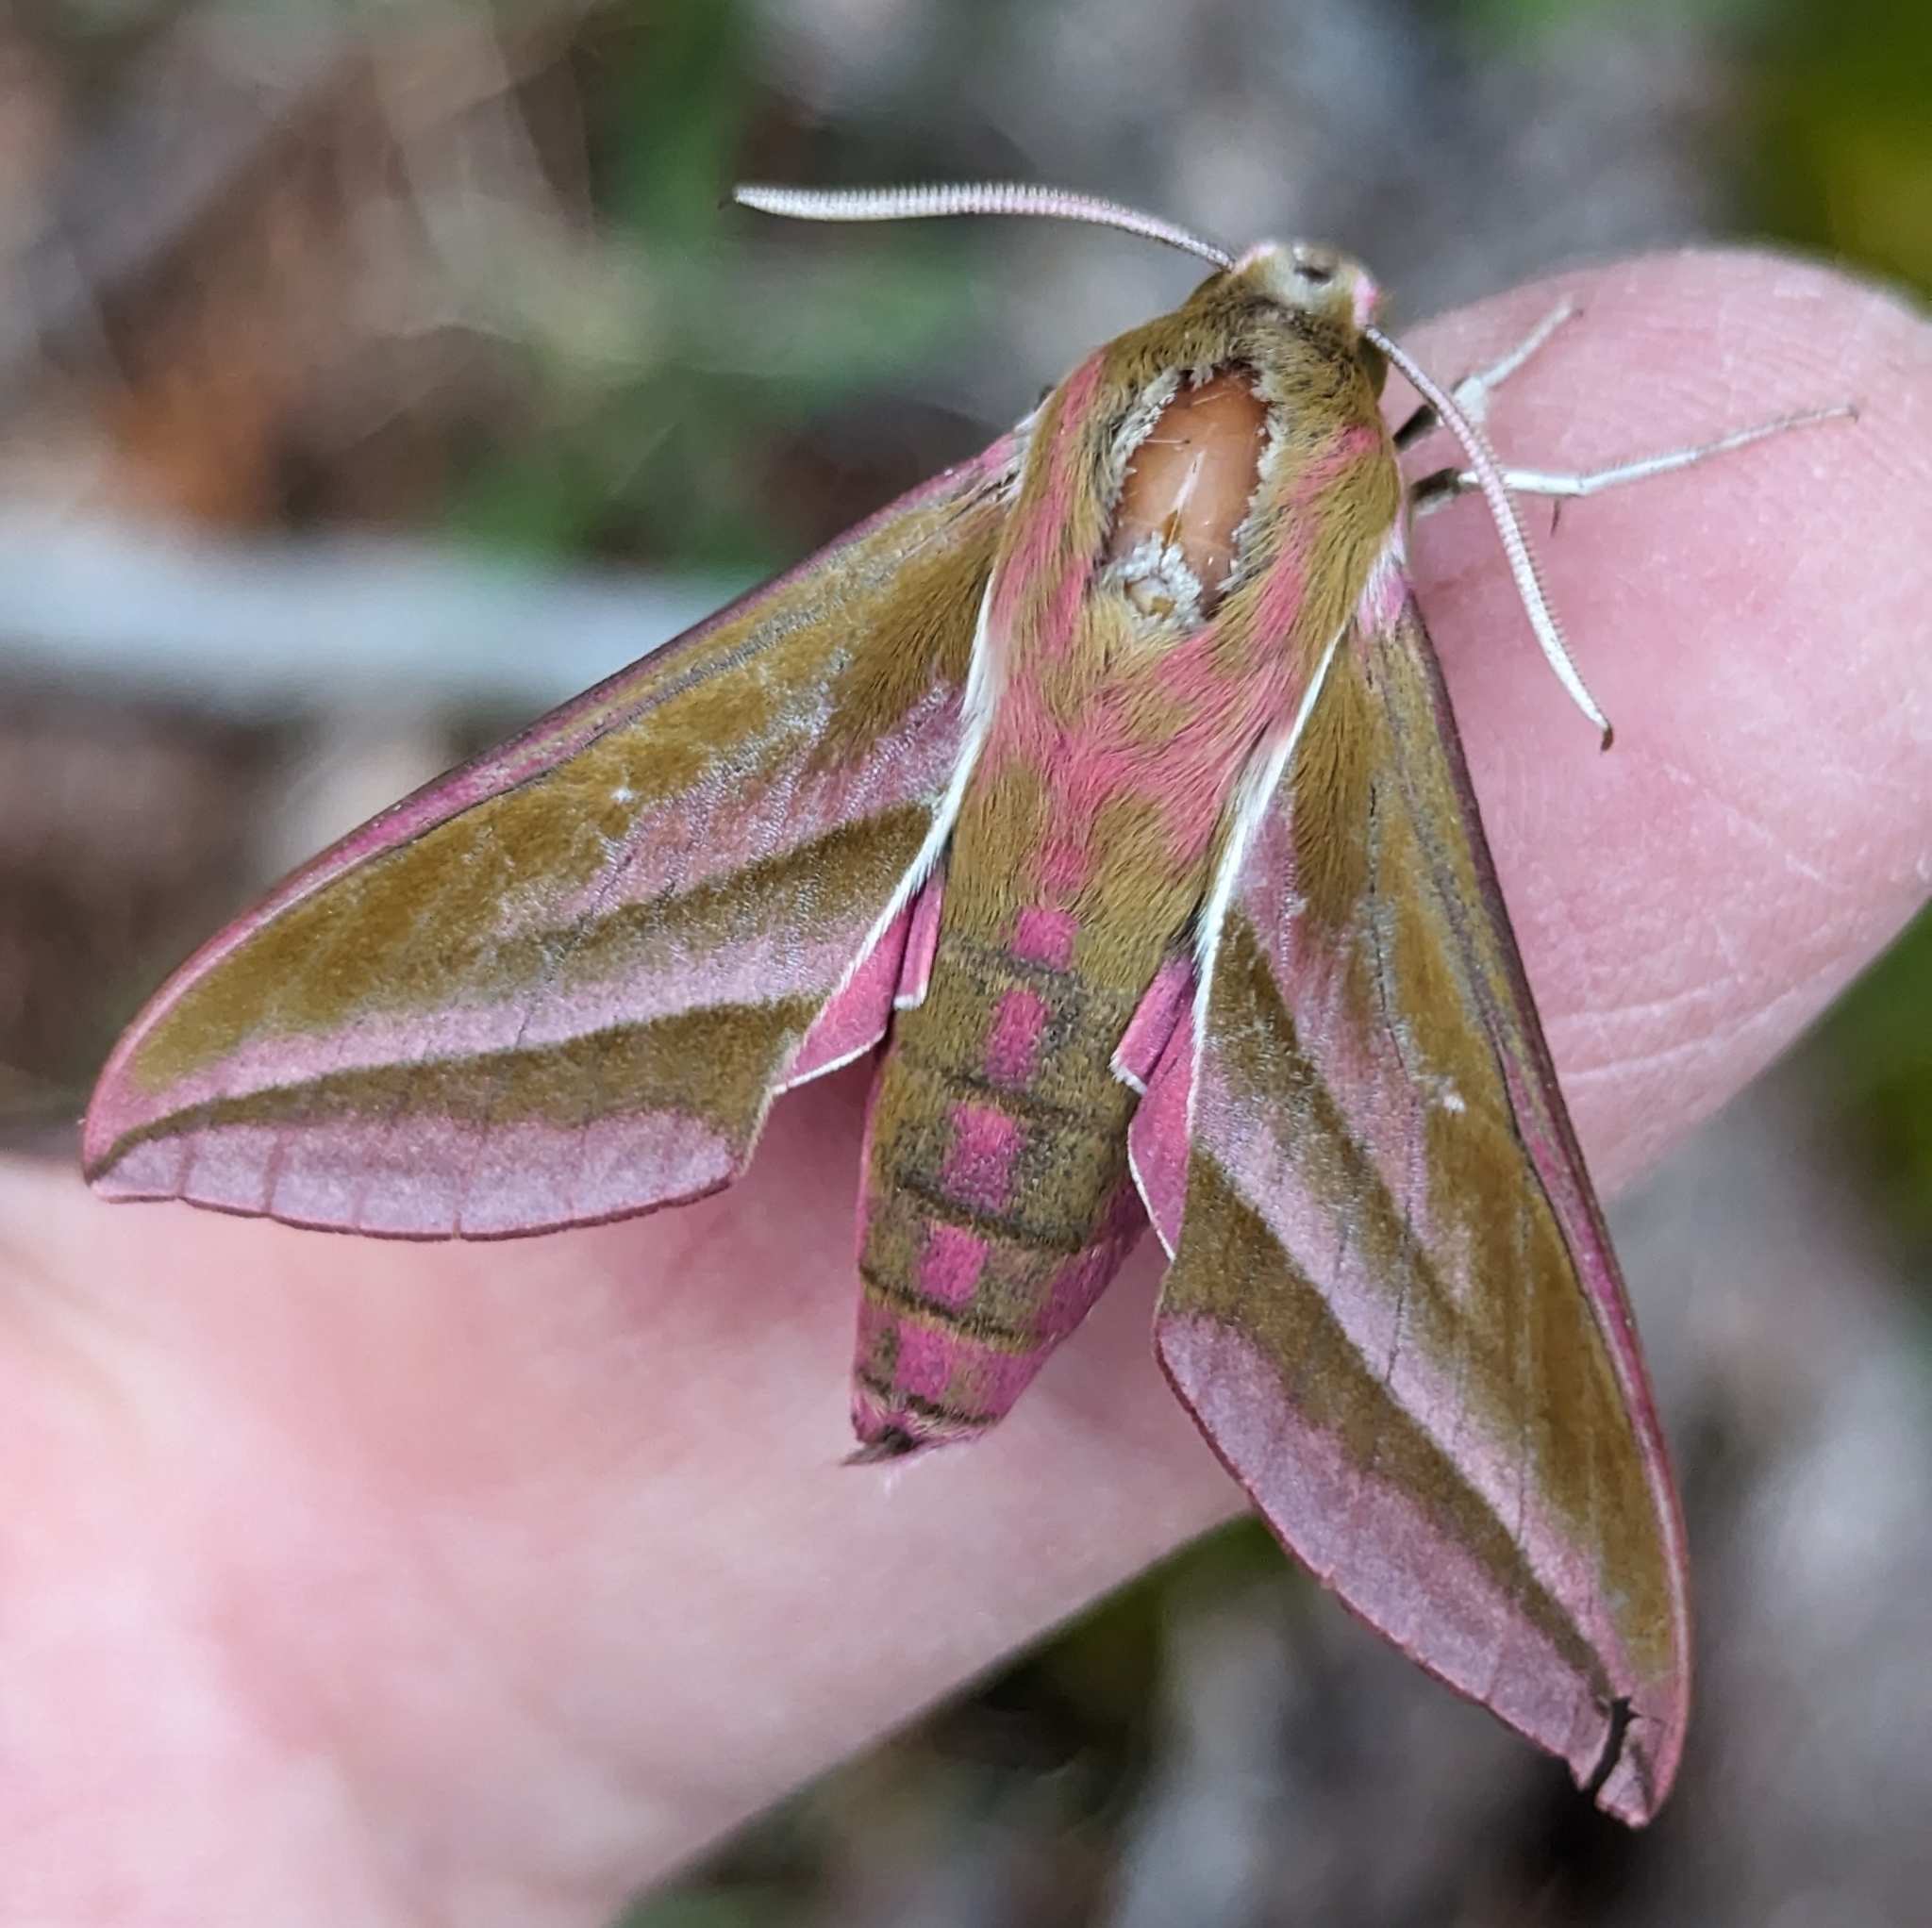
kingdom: Animalia
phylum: Arthropoda
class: Insecta
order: Lepidoptera
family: Sphingidae
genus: Deilephila
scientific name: Deilephila elpenor
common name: Elephant hawk-moth
